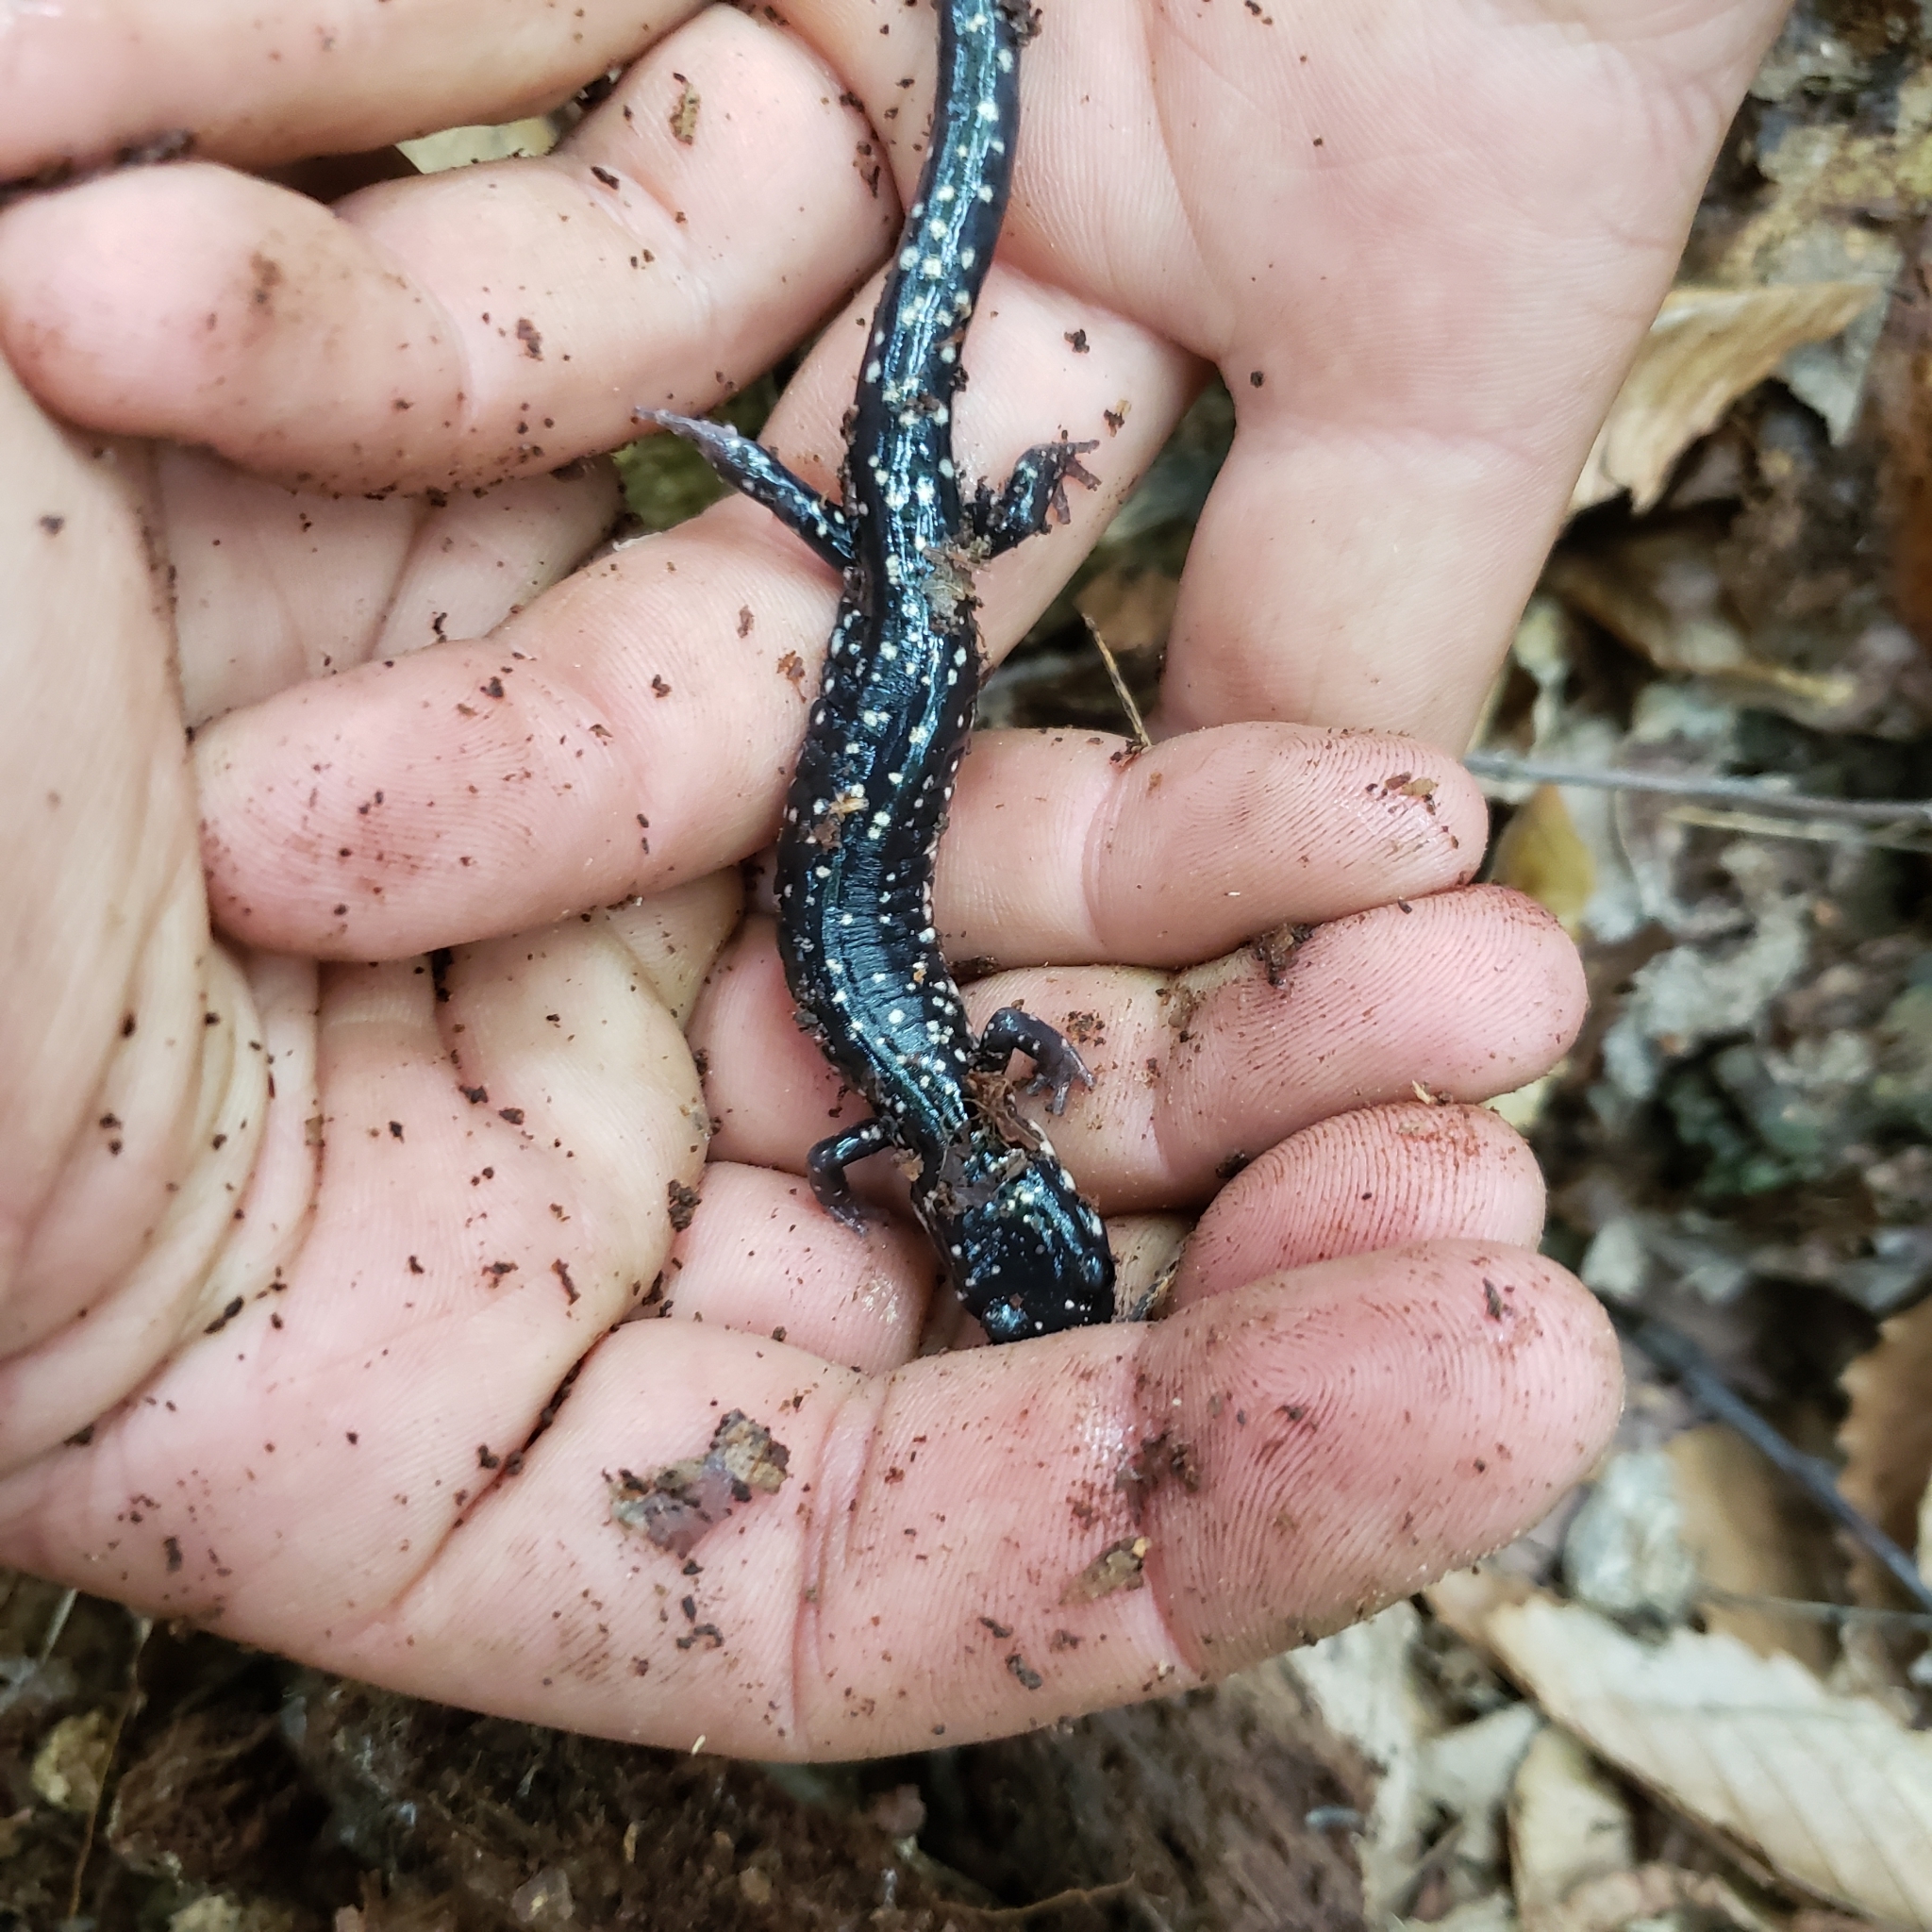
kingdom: Animalia
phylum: Chordata
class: Amphibia
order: Caudata
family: Plethodontidae
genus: Plethodon
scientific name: Plethodon glutinosus
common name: Northern slimy salamander
